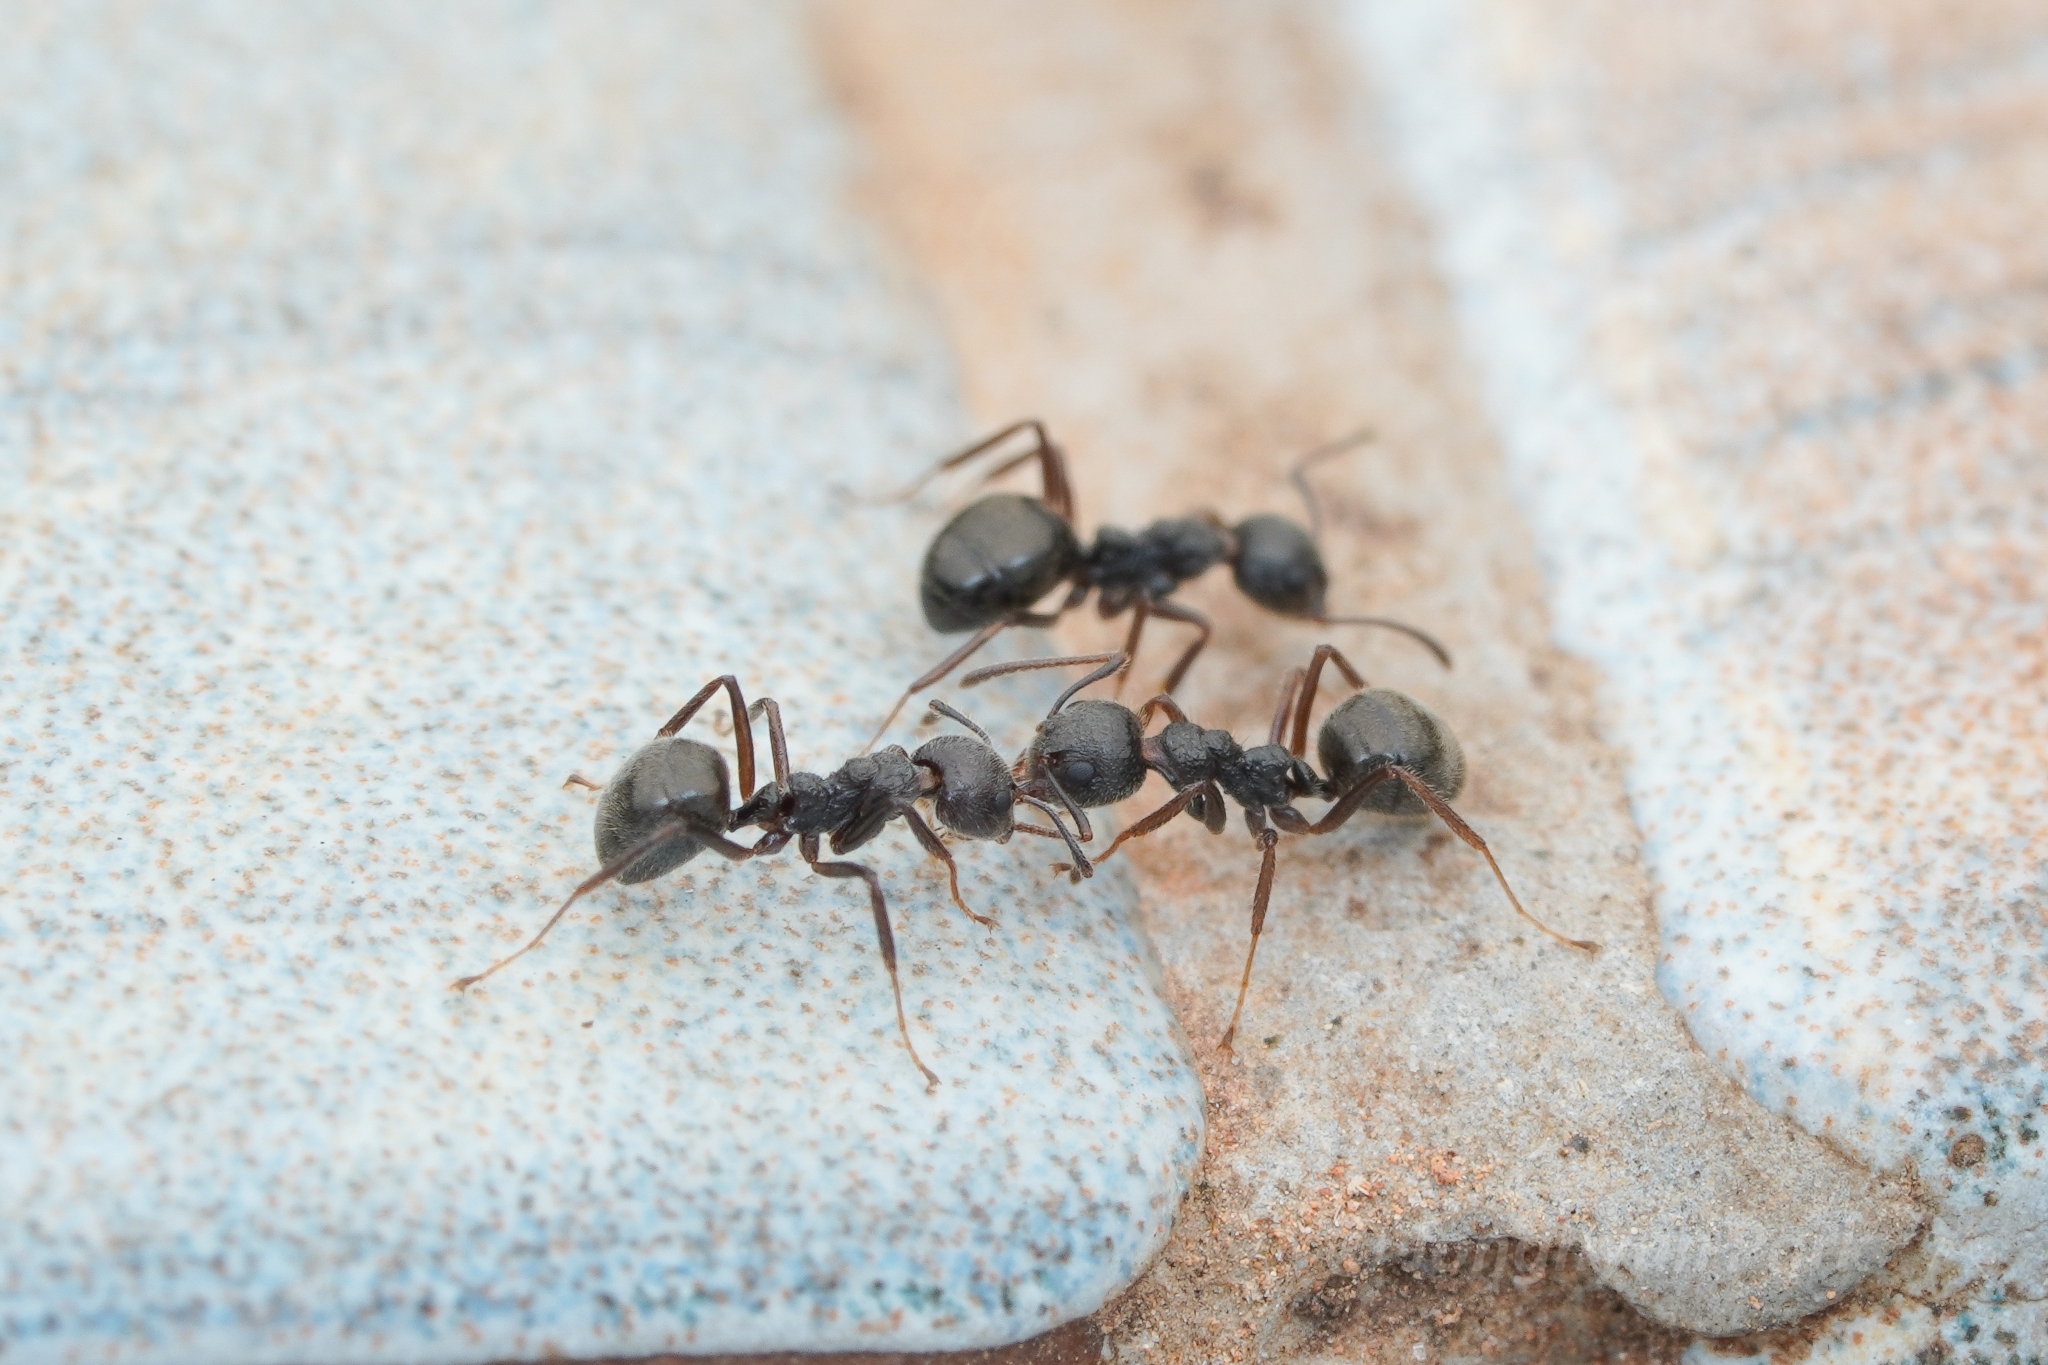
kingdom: Animalia
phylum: Arthropoda
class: Insecta
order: Hymenoptera
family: Formicidae
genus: Dolichoderus
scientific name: Dolichoderus thoracicus
